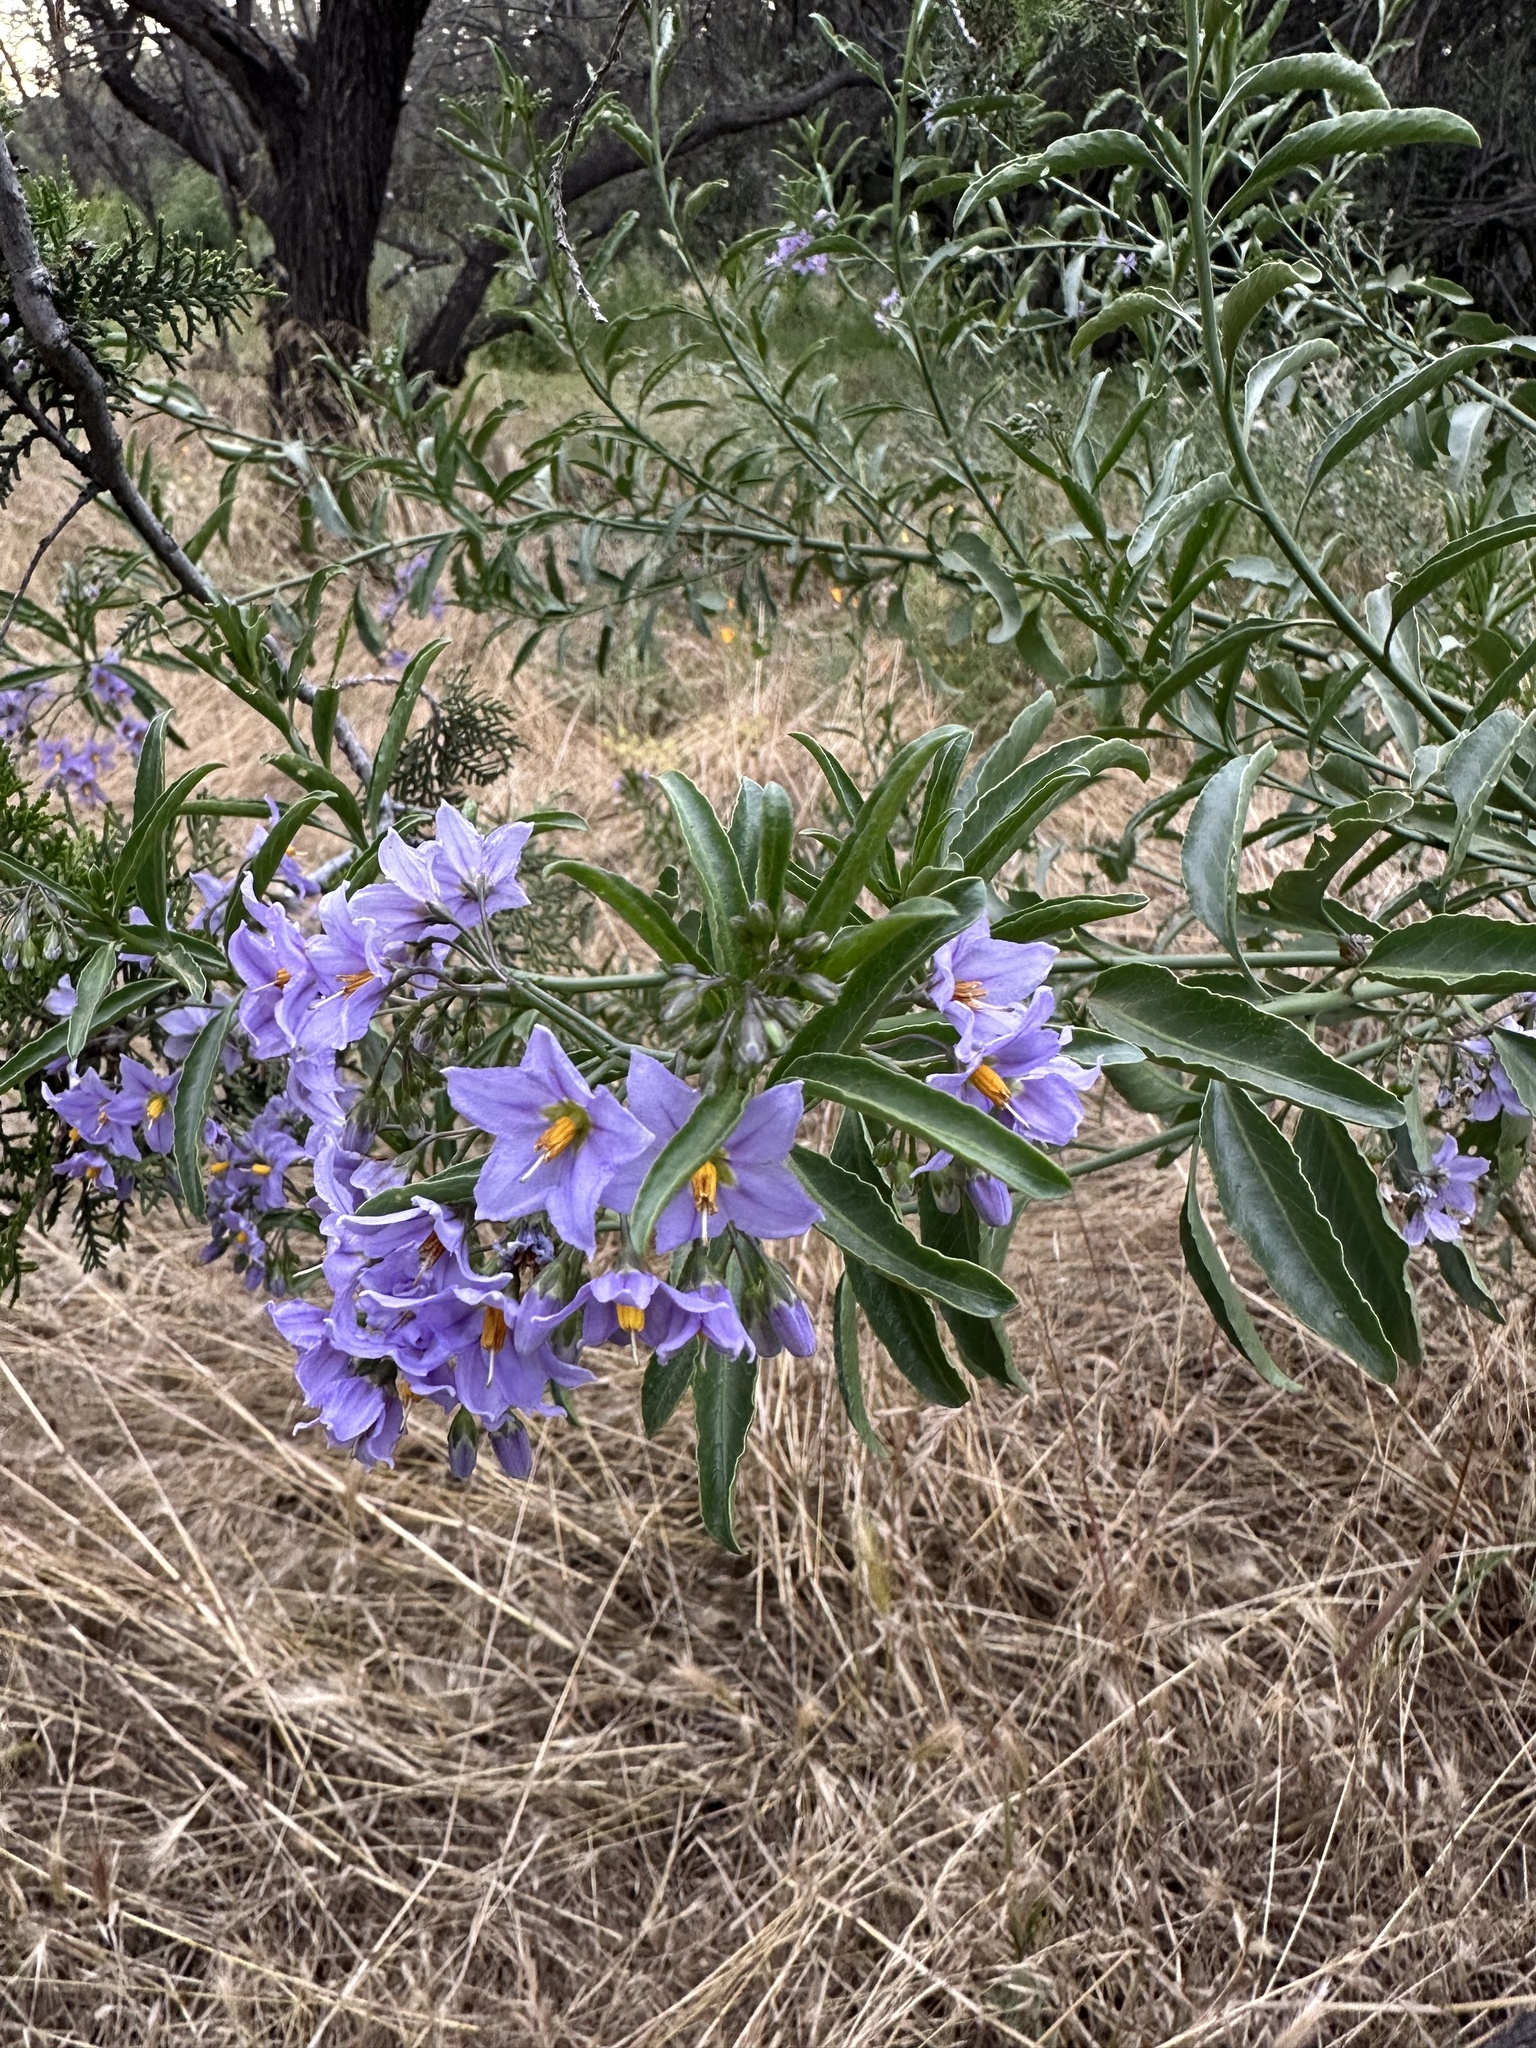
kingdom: Plantae
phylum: Tracheophyta
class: Magnoliopsida
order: Solanales
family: Solanaceae
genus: Solanum
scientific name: Solanum crispum
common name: Chilean nightshade
